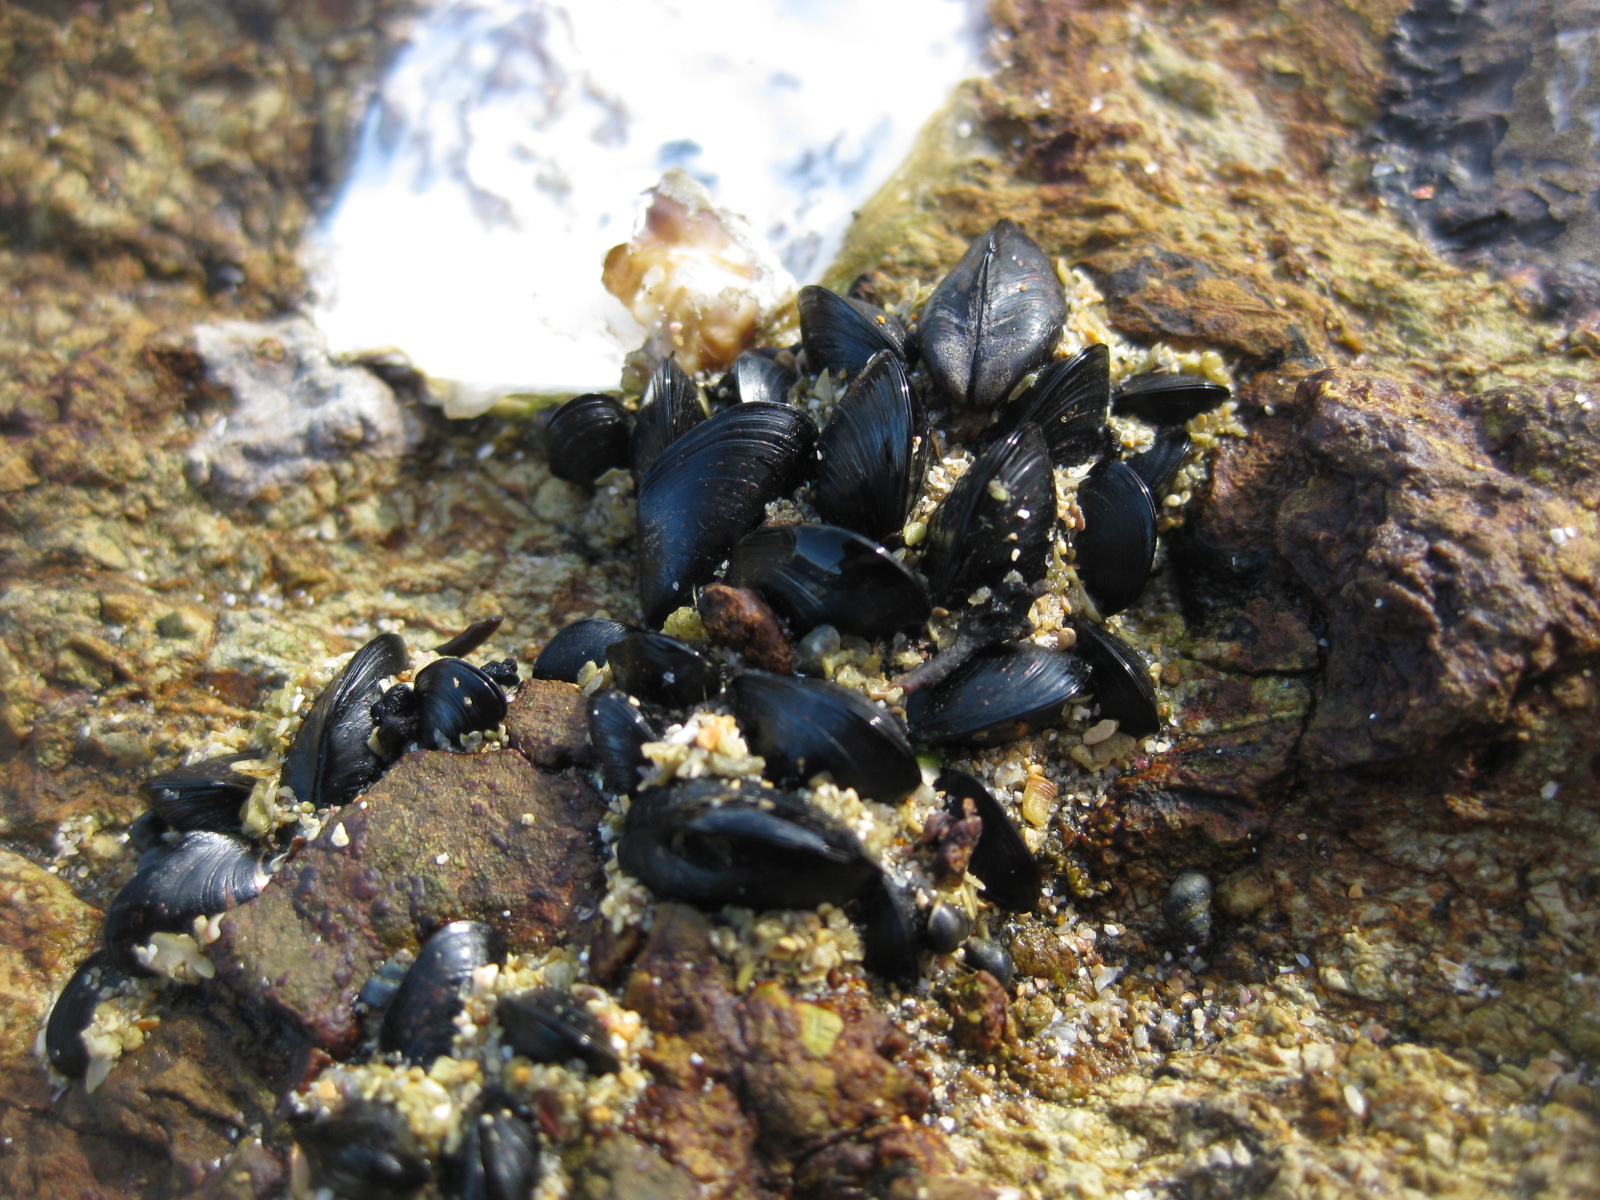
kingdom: Animalia
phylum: Mollusca
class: Bivalvia
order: Mytilida
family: Mytilidae
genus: Xenostrobus
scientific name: Xenostrobus neozelanicus
